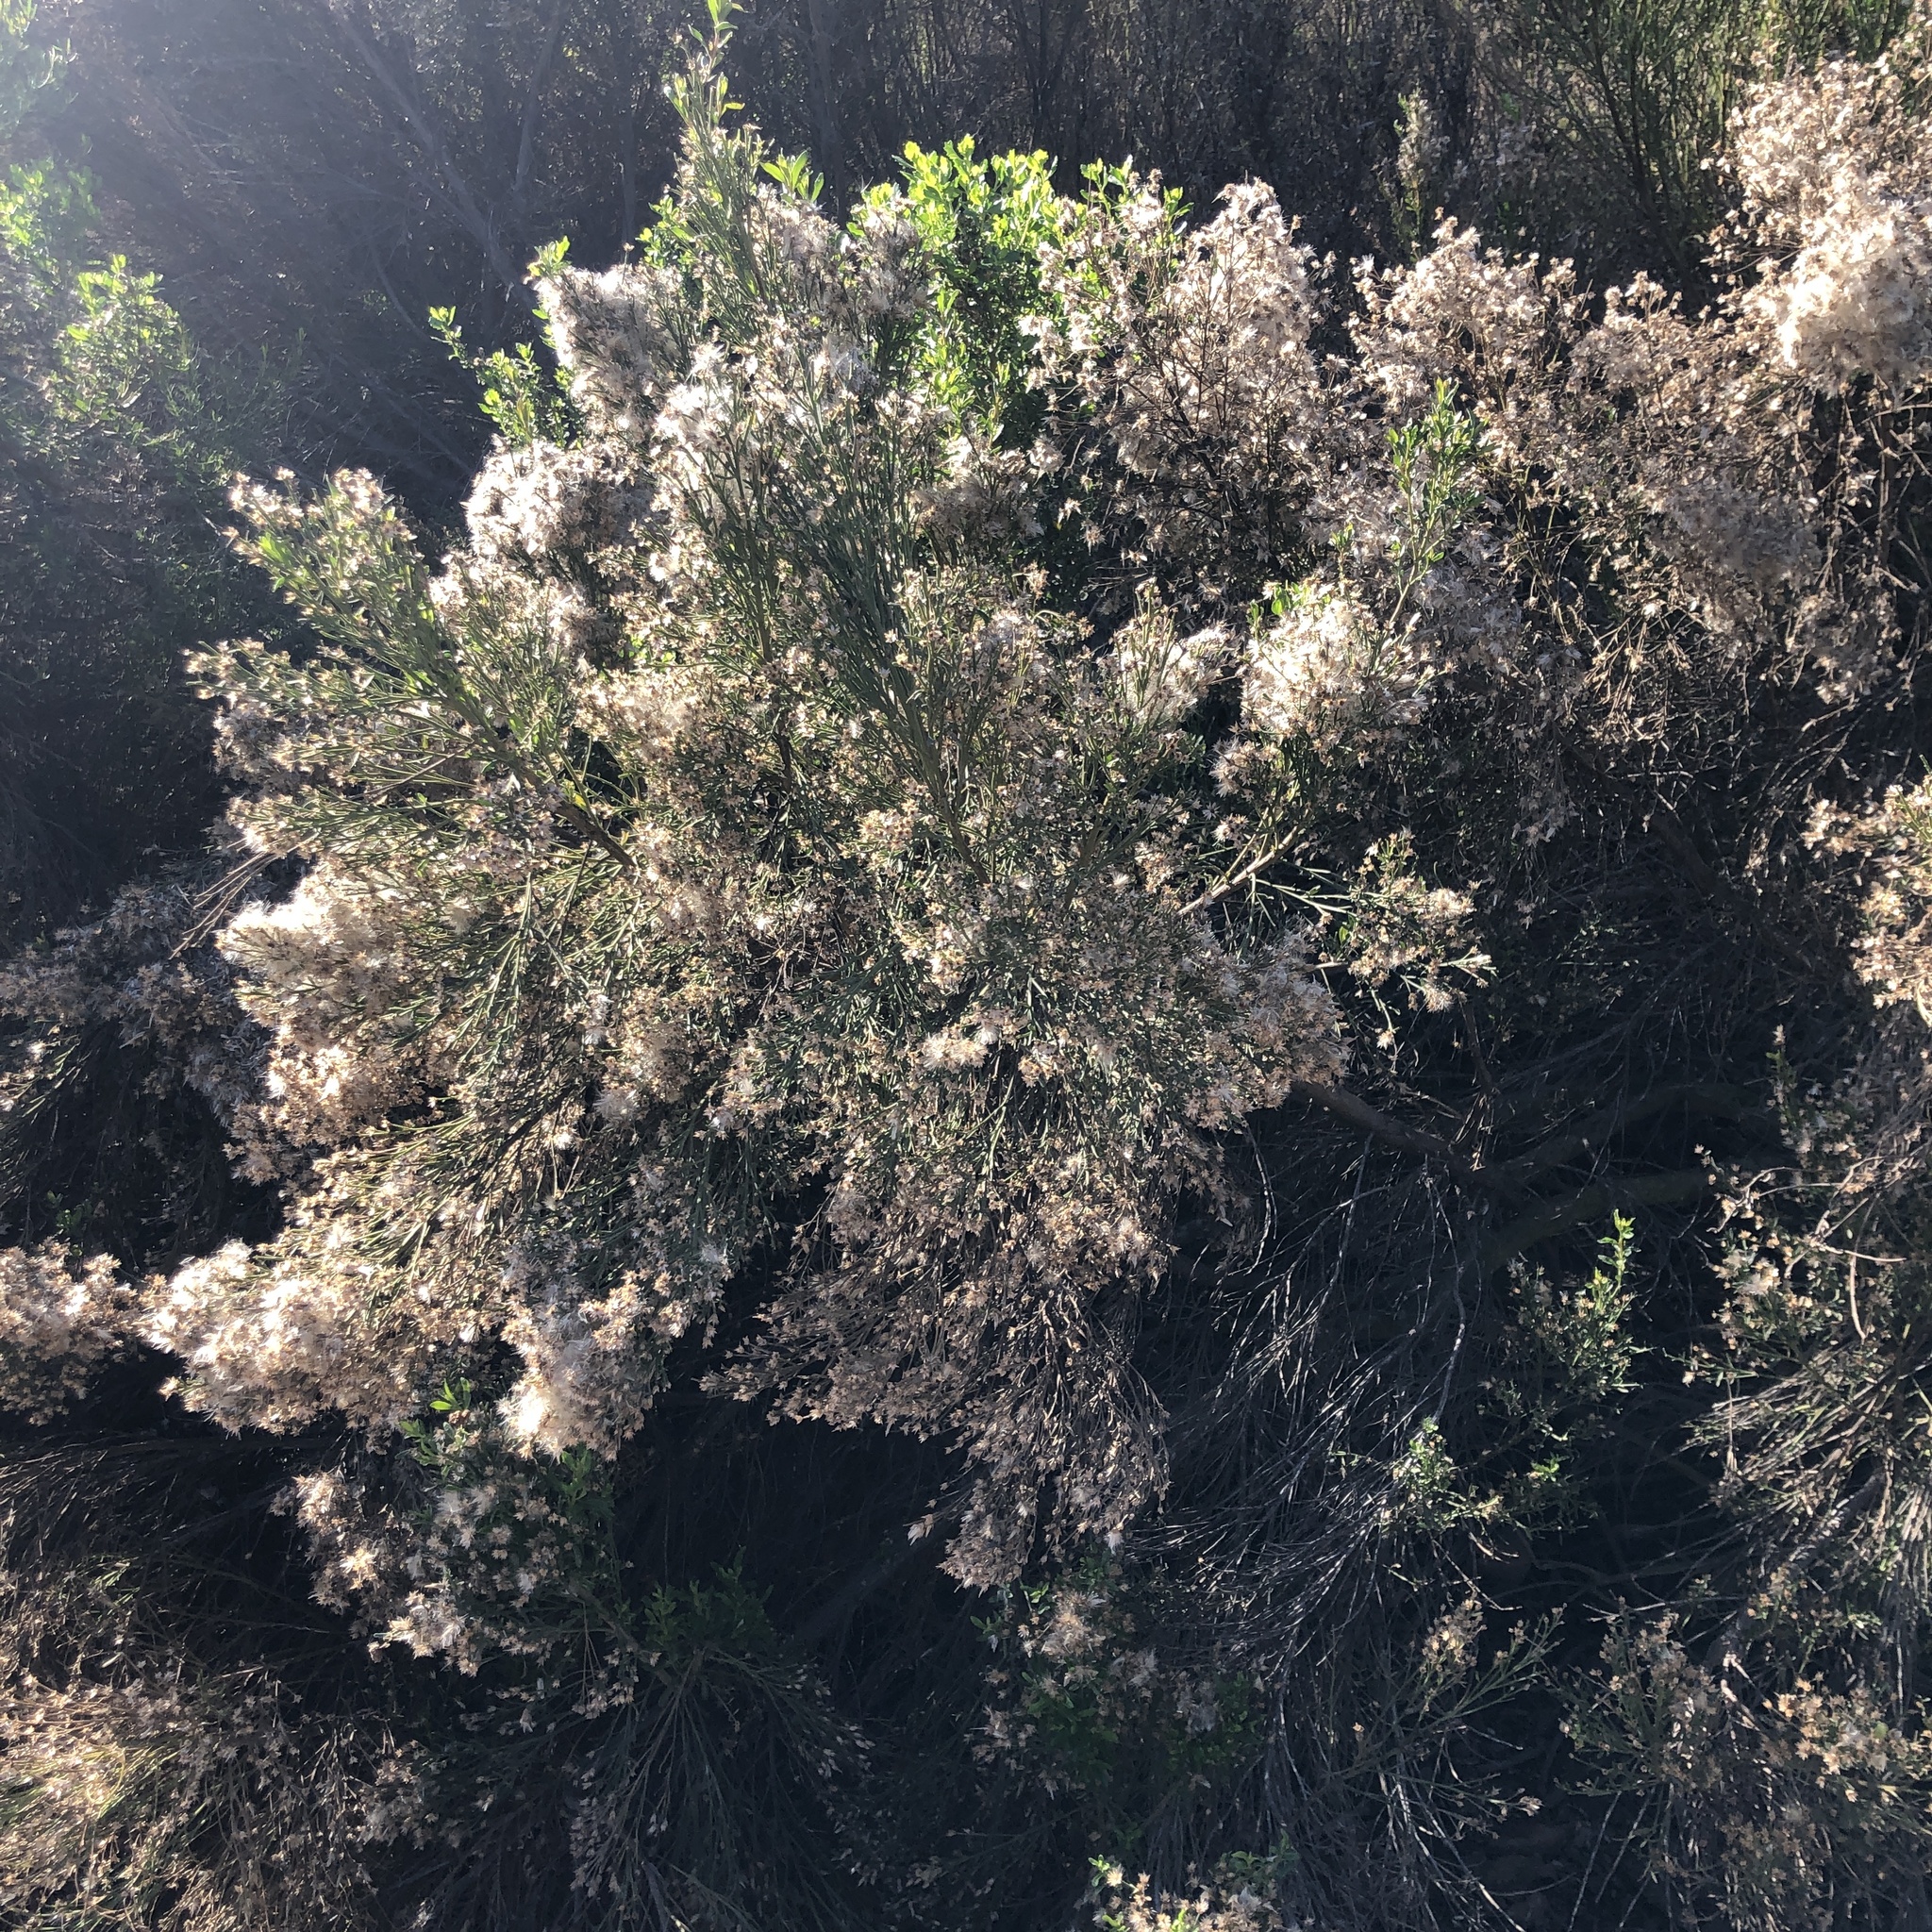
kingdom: Plantae
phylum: Tracheophyta
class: Magnoliopsida
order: Asterales
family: Asteraceae
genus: Baccharis
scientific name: Baccharis sarothroides
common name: Desert-broom
